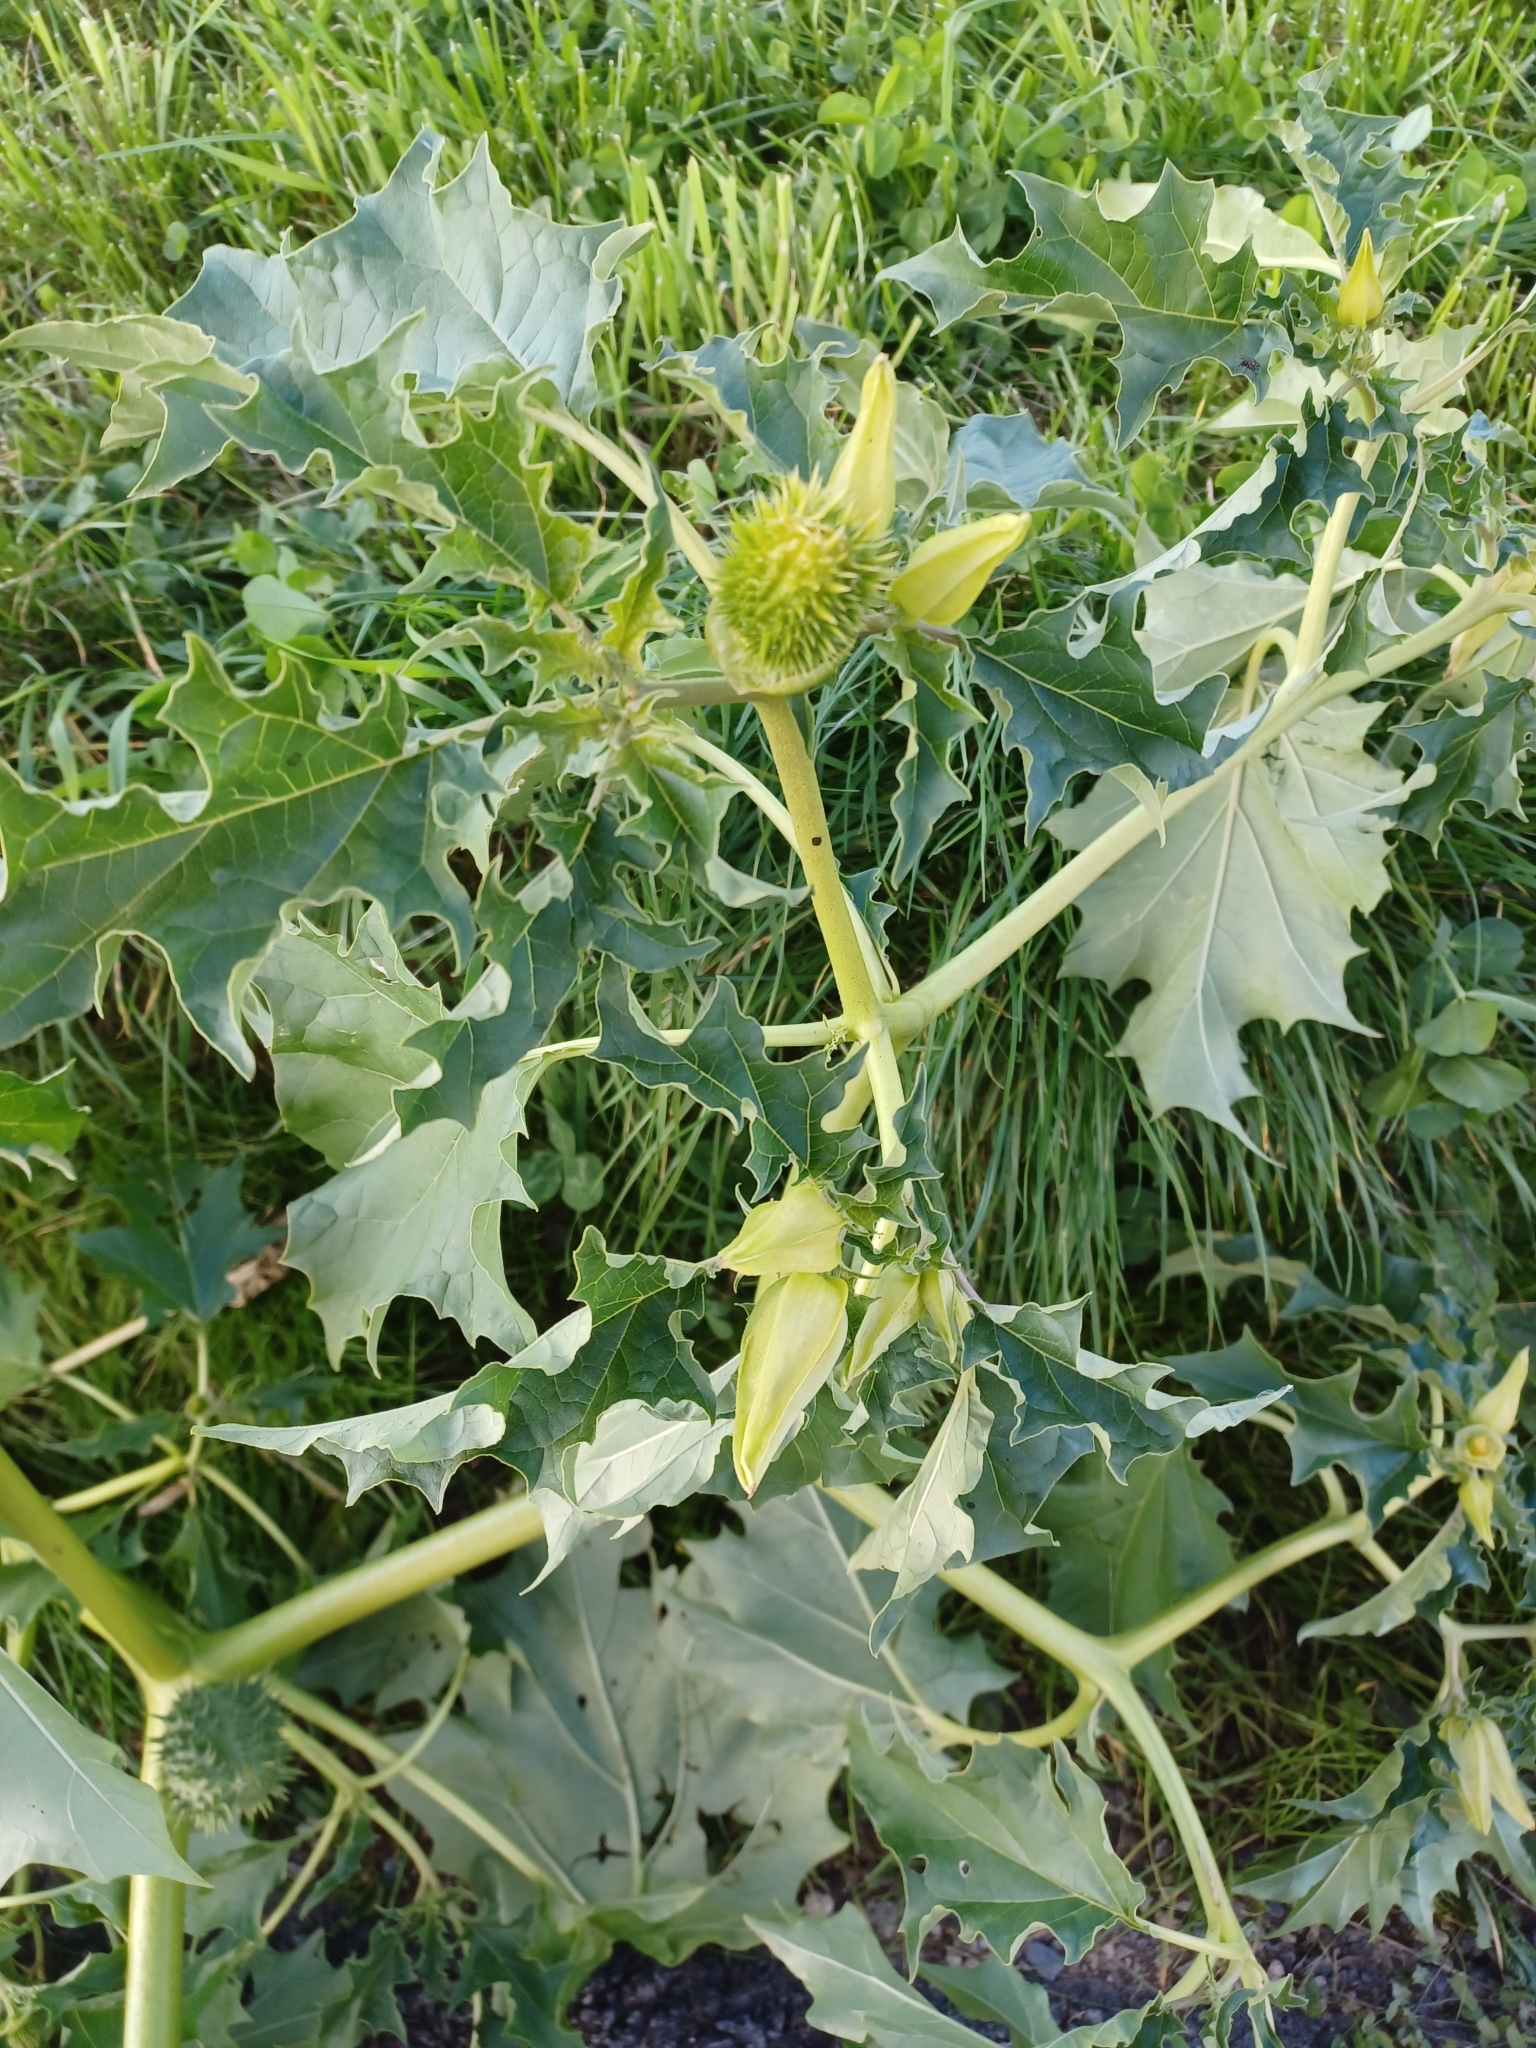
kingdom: Plantae
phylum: Tracheophyta
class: Magnoliopsida
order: Solanales
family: Solanaceae
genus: Datura
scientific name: Datura stramonium
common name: Thorn-apple
